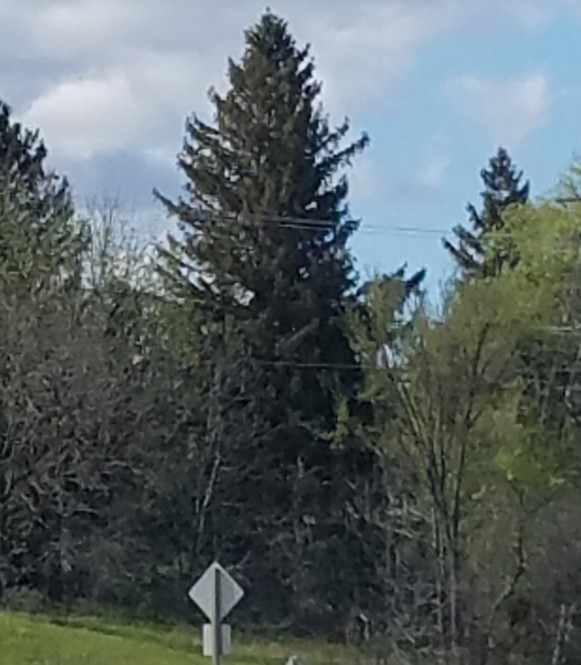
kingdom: Plantae
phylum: Tracheophyta
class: Pinopsida
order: Pinales
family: Pinaceae
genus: Picea
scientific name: Picea abies
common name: Norway spruce
